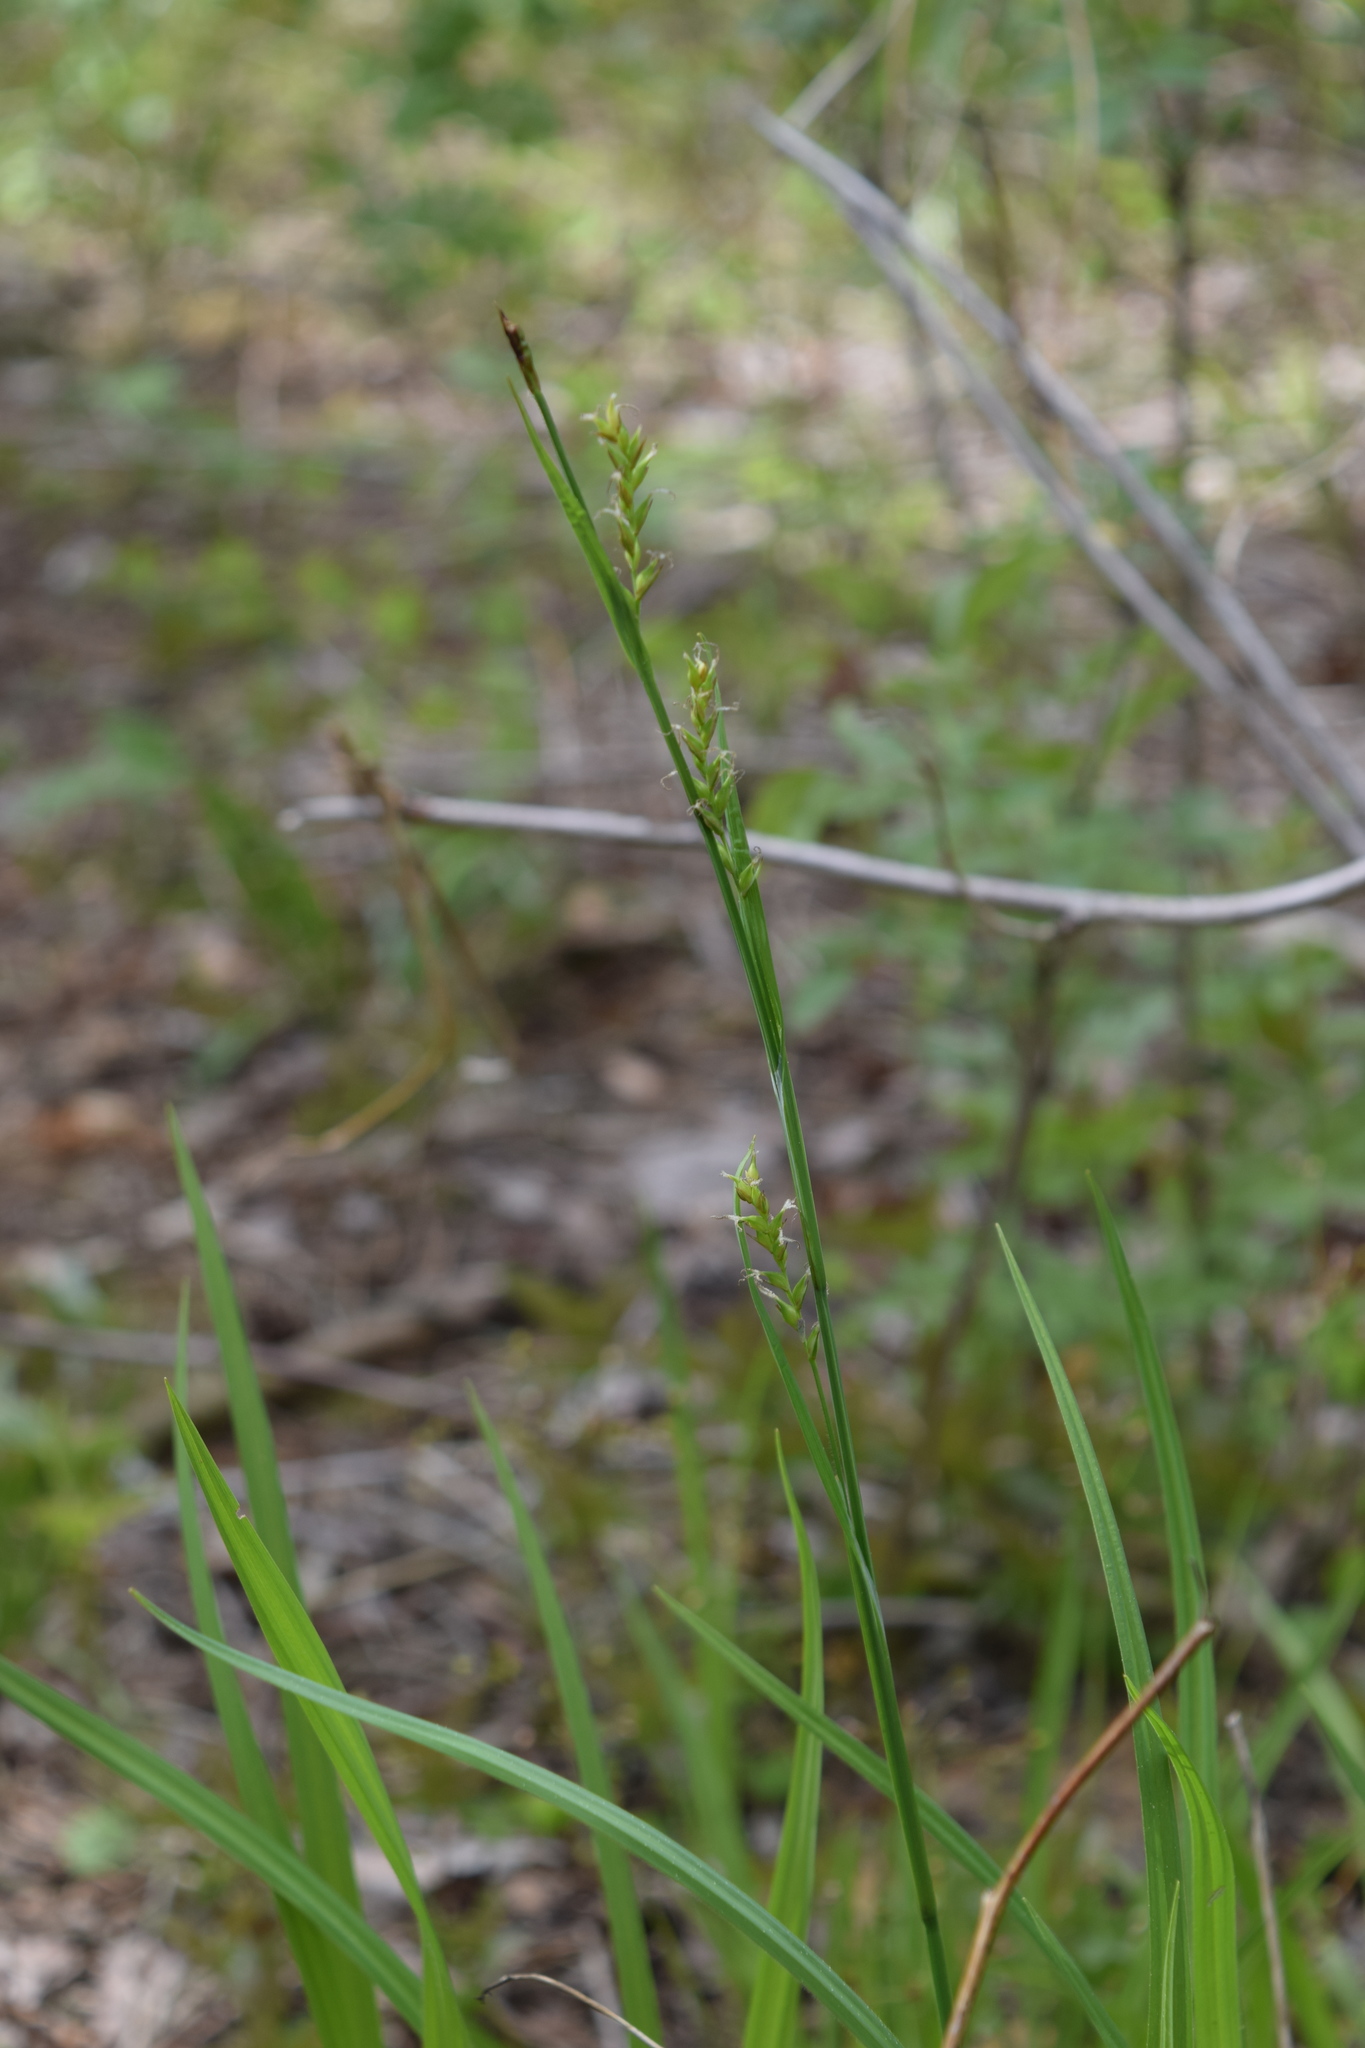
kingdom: Plantae
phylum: Tracheophyta
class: Liliopsida
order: Poales
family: Cyperaceae
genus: Carex
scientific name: Carex pilosa
